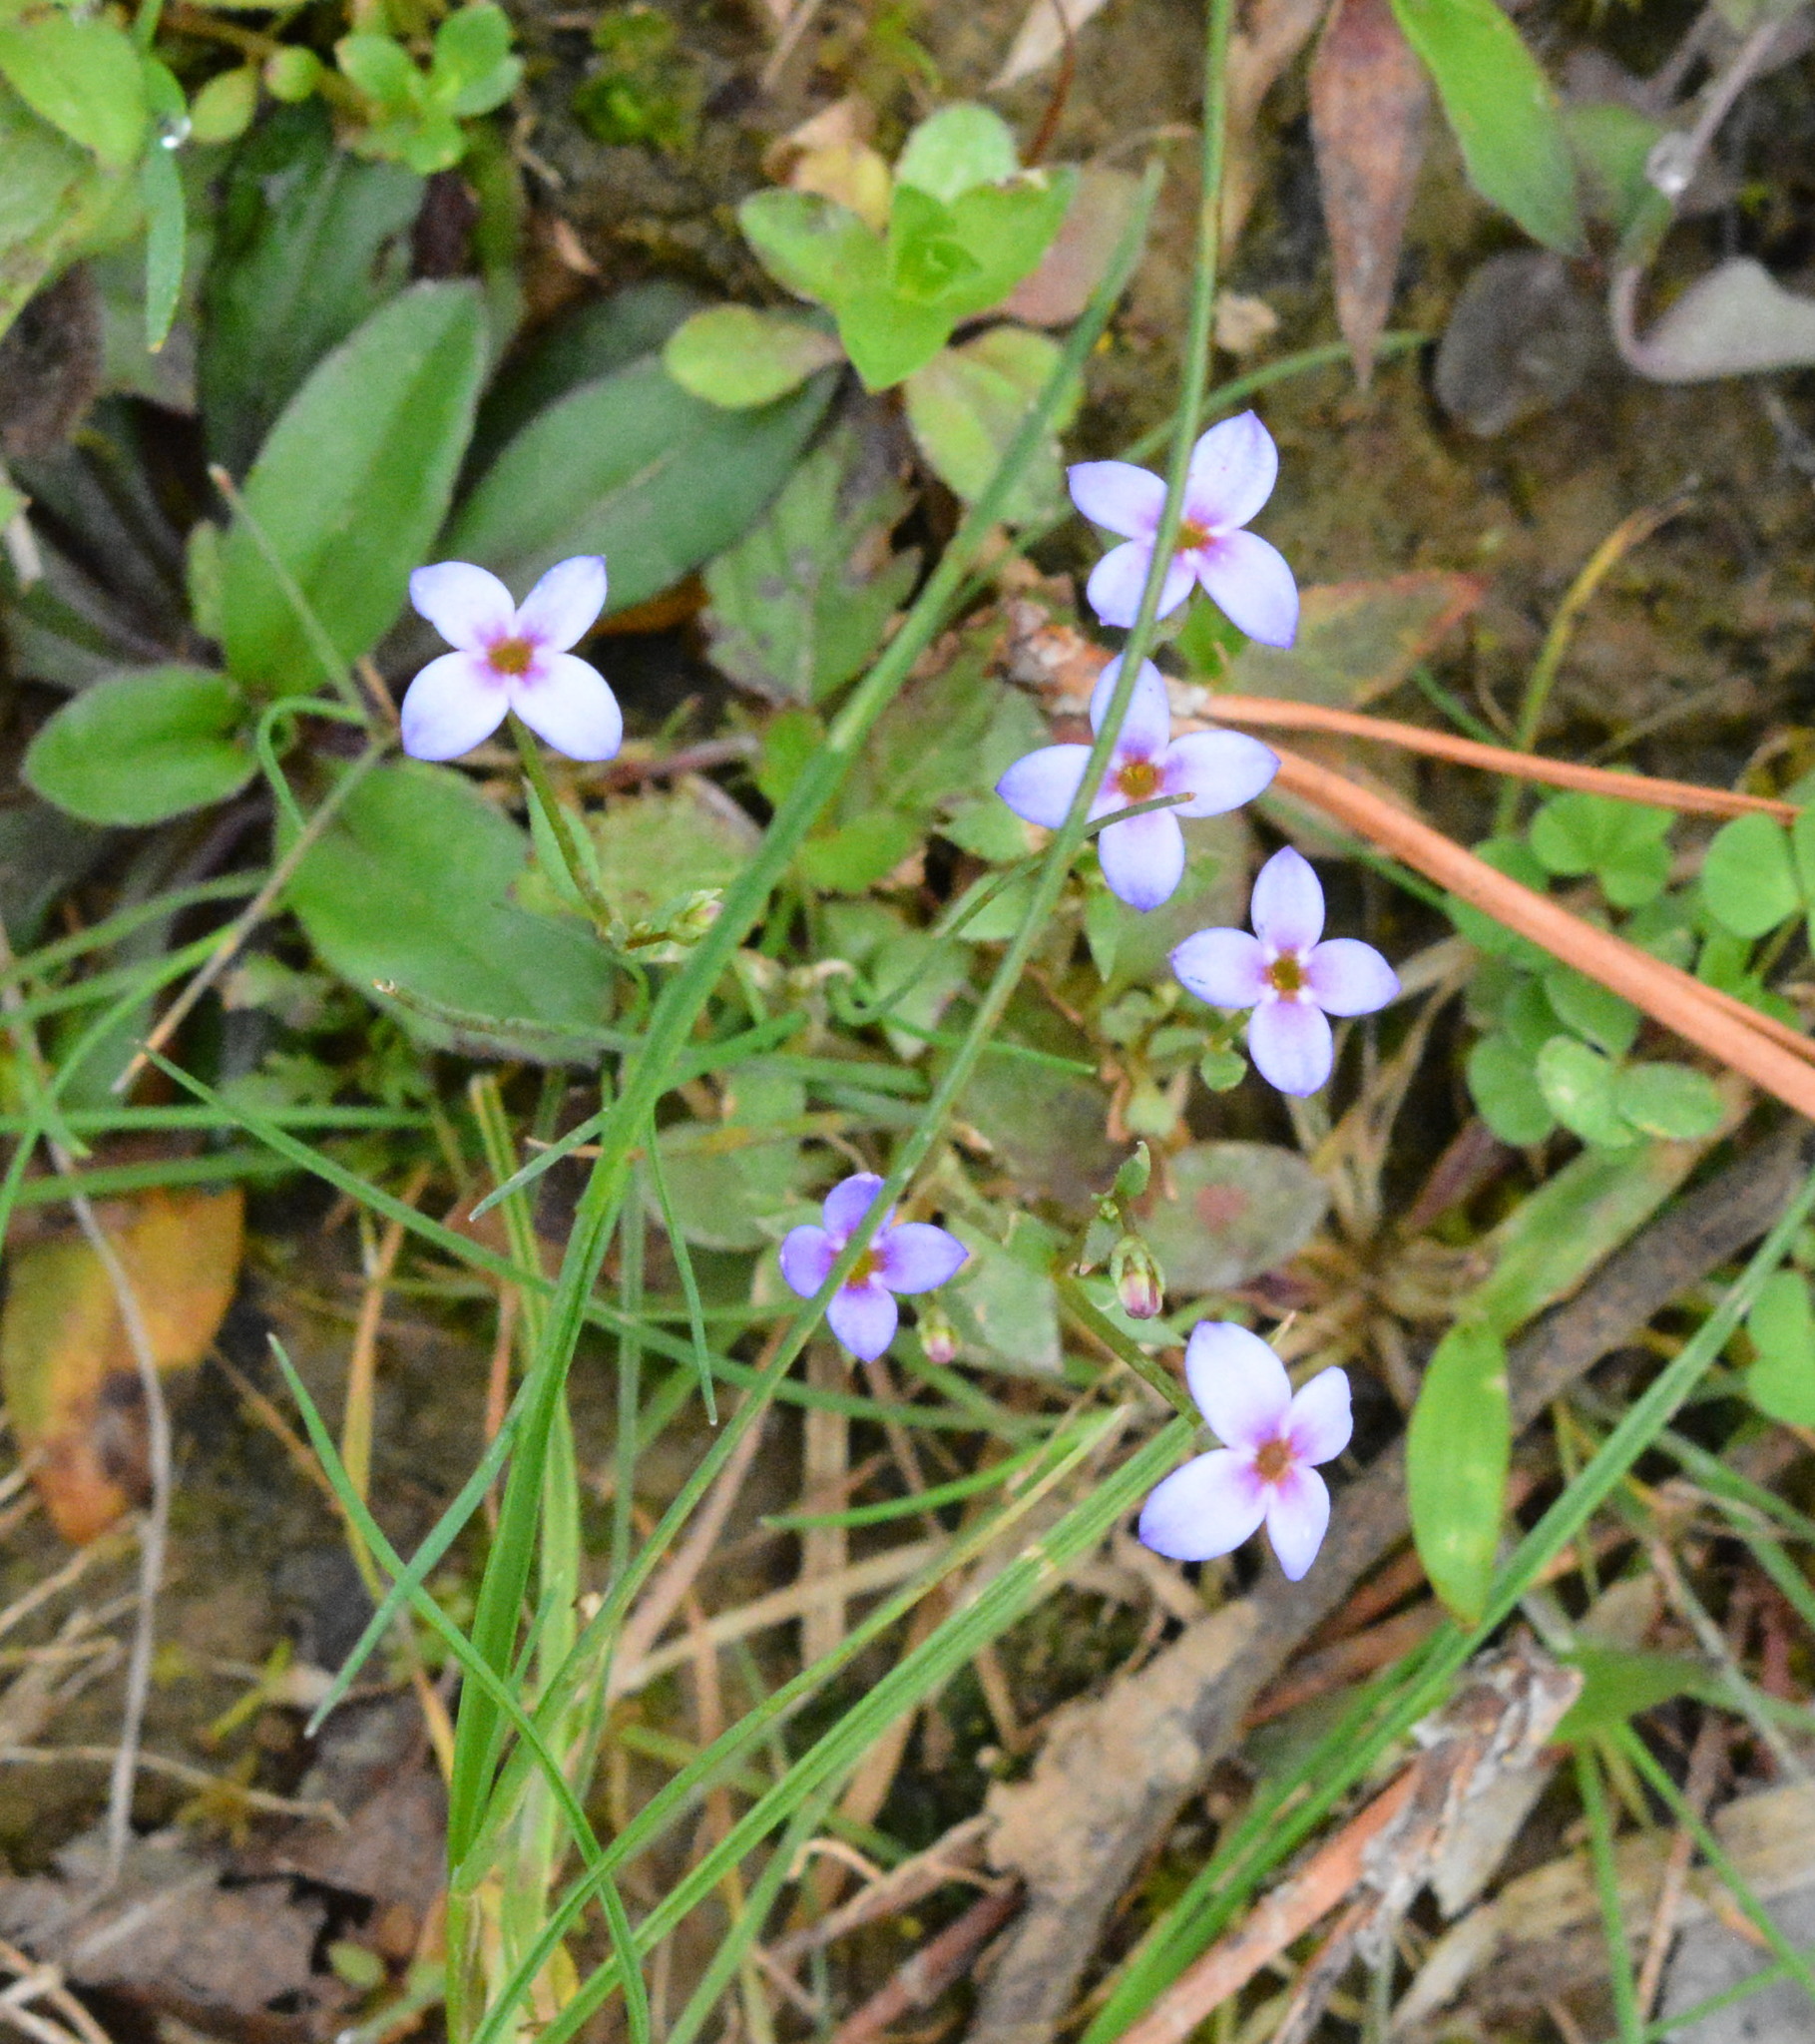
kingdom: Plantae
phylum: Tracheophyta
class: Magnoliopsida
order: Gentianales
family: Rubiaceae
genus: Houstonia
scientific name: Houstonia pusilla
